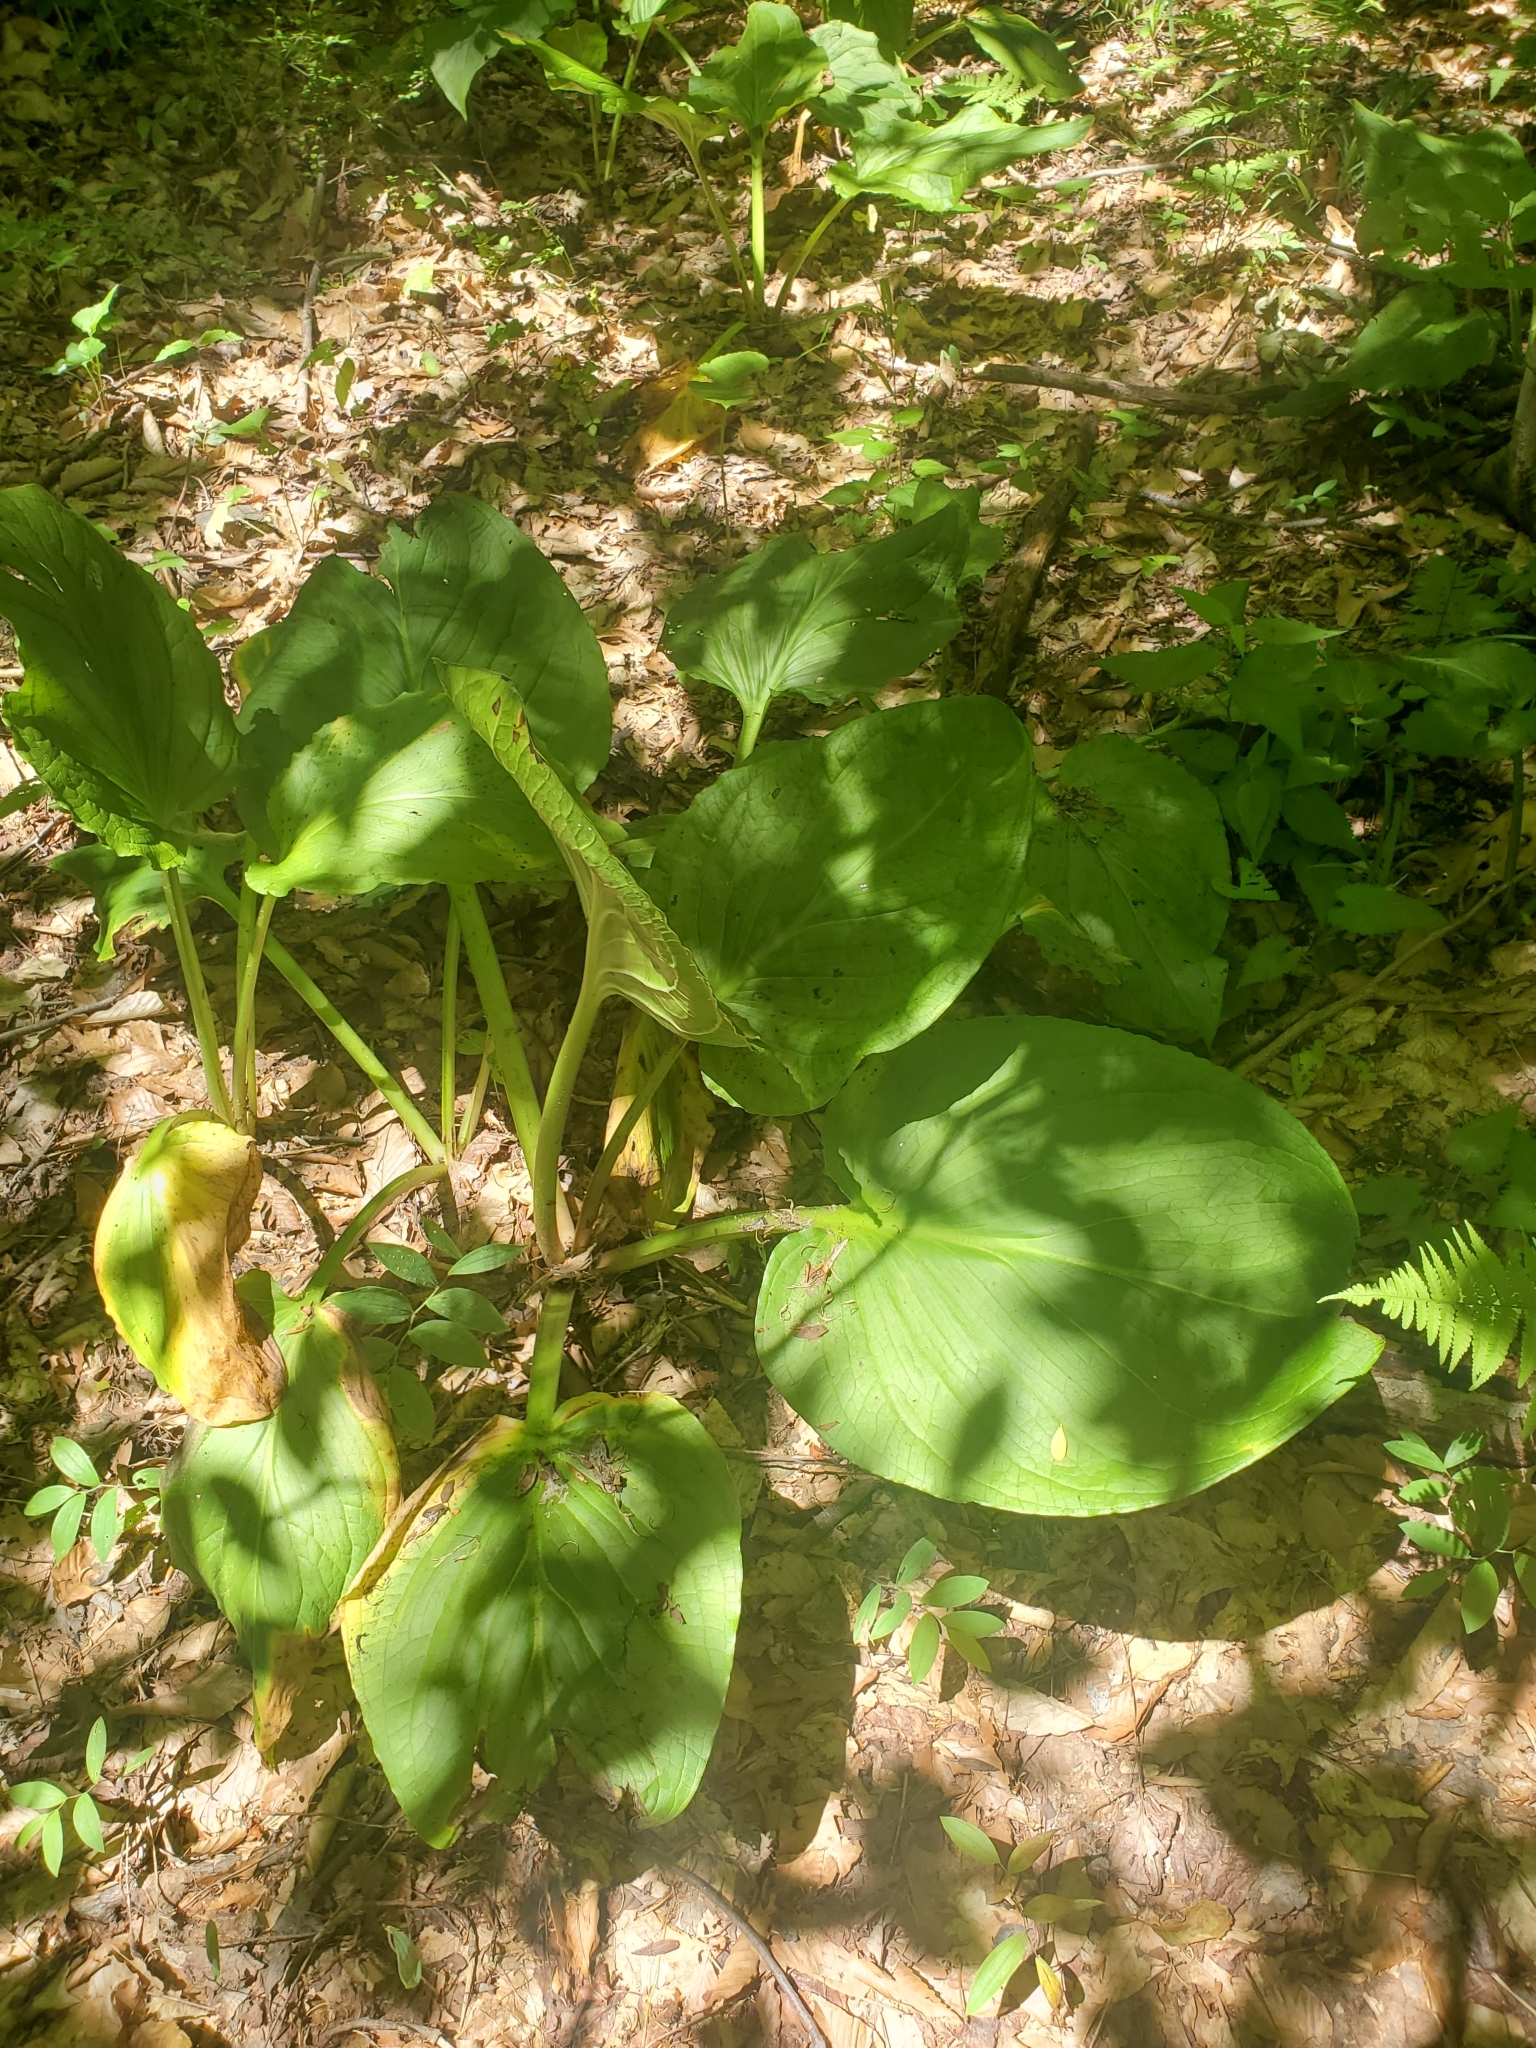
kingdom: Plantae
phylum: Tracheophyta
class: Liliopsida
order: Alismatales
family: Araceae
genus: Symplocarpus
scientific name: Symplocarpus foetidus
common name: Eastern skunk cabbage
